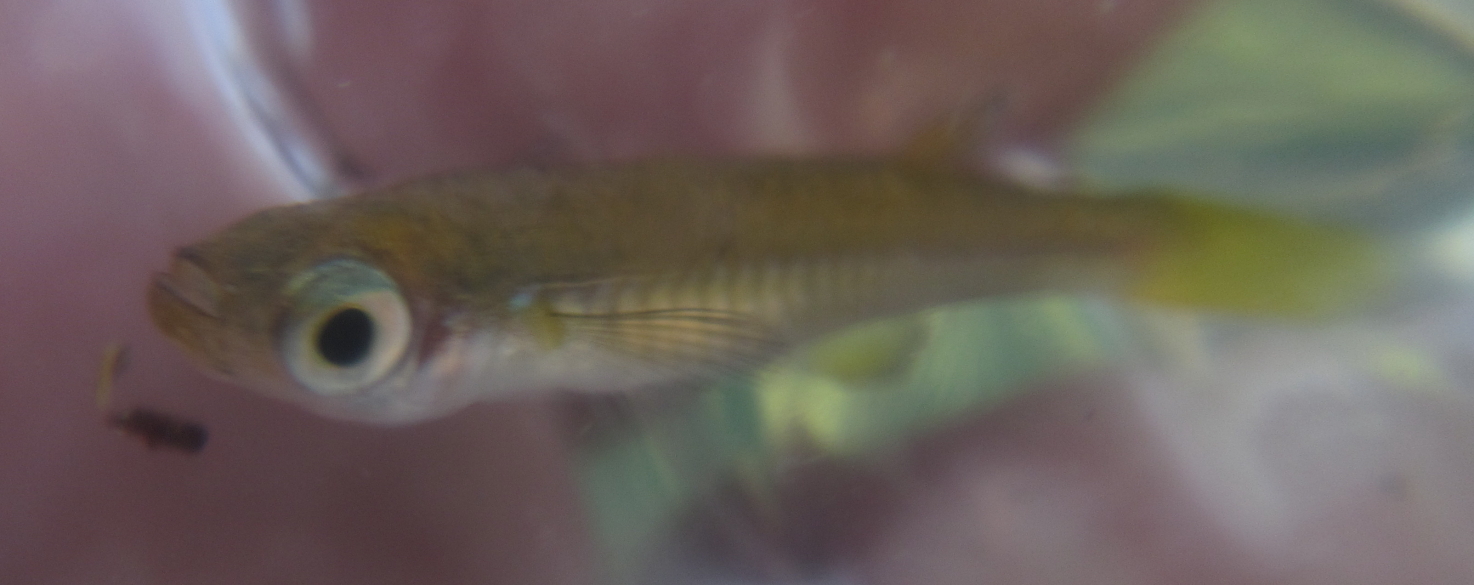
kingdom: Animalia
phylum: Chordata
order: Cyprinodontiformes
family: Poeciliidae
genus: Micropanchax
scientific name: Micropanchax johnstoni
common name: Johnston's topminnow
